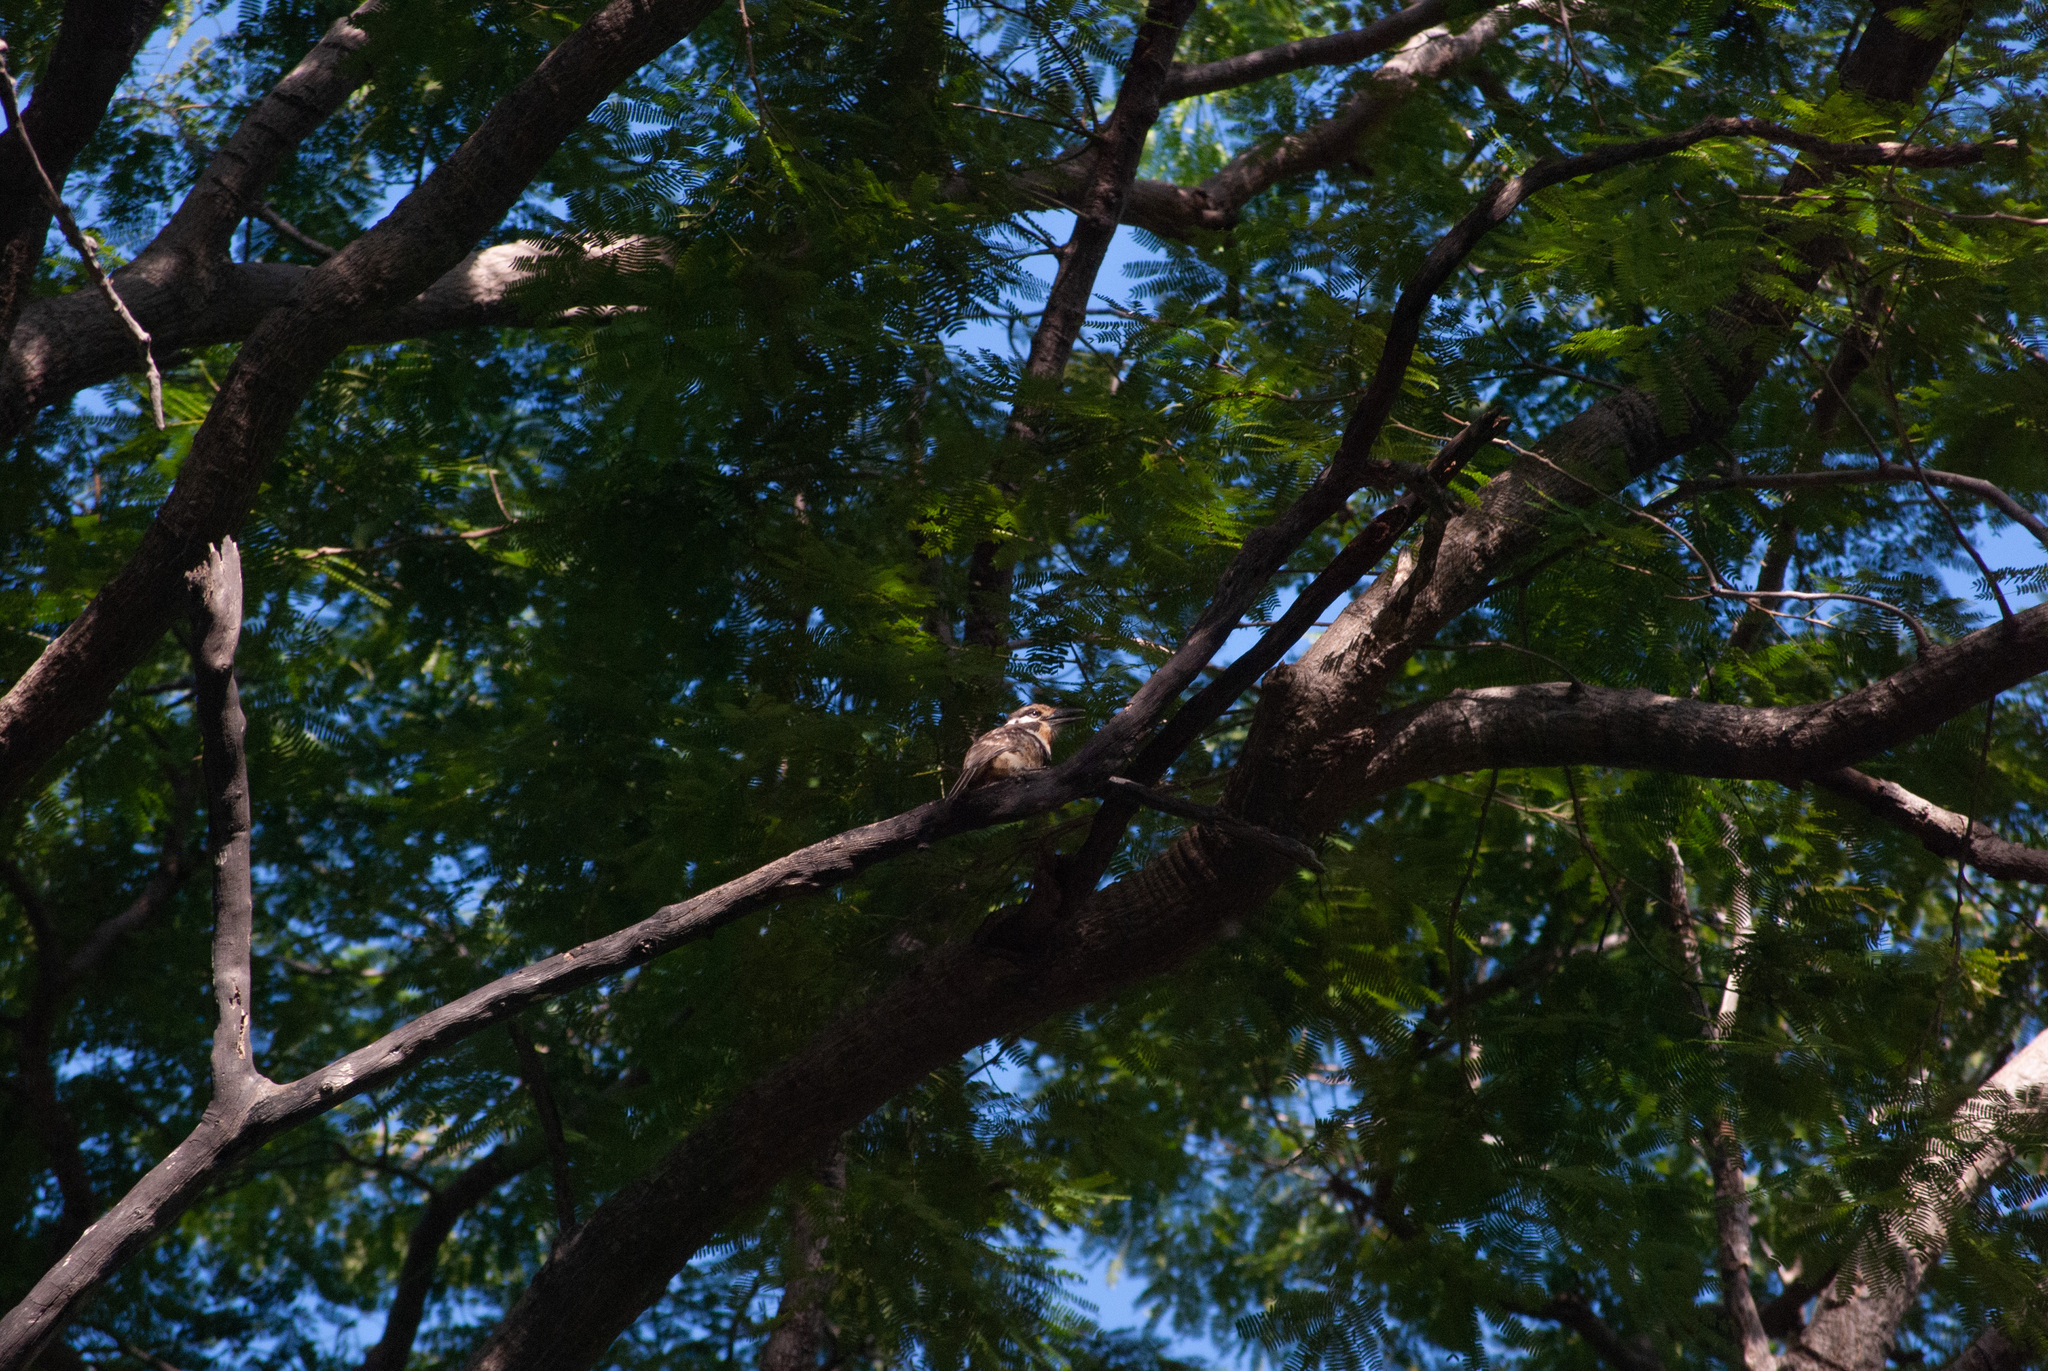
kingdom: Animalia
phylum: Chordata
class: Aves
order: Piciformes
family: Bucconidae
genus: Hypnelus
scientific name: Hypnelus ruficollis
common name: Russet-throated puffbird
